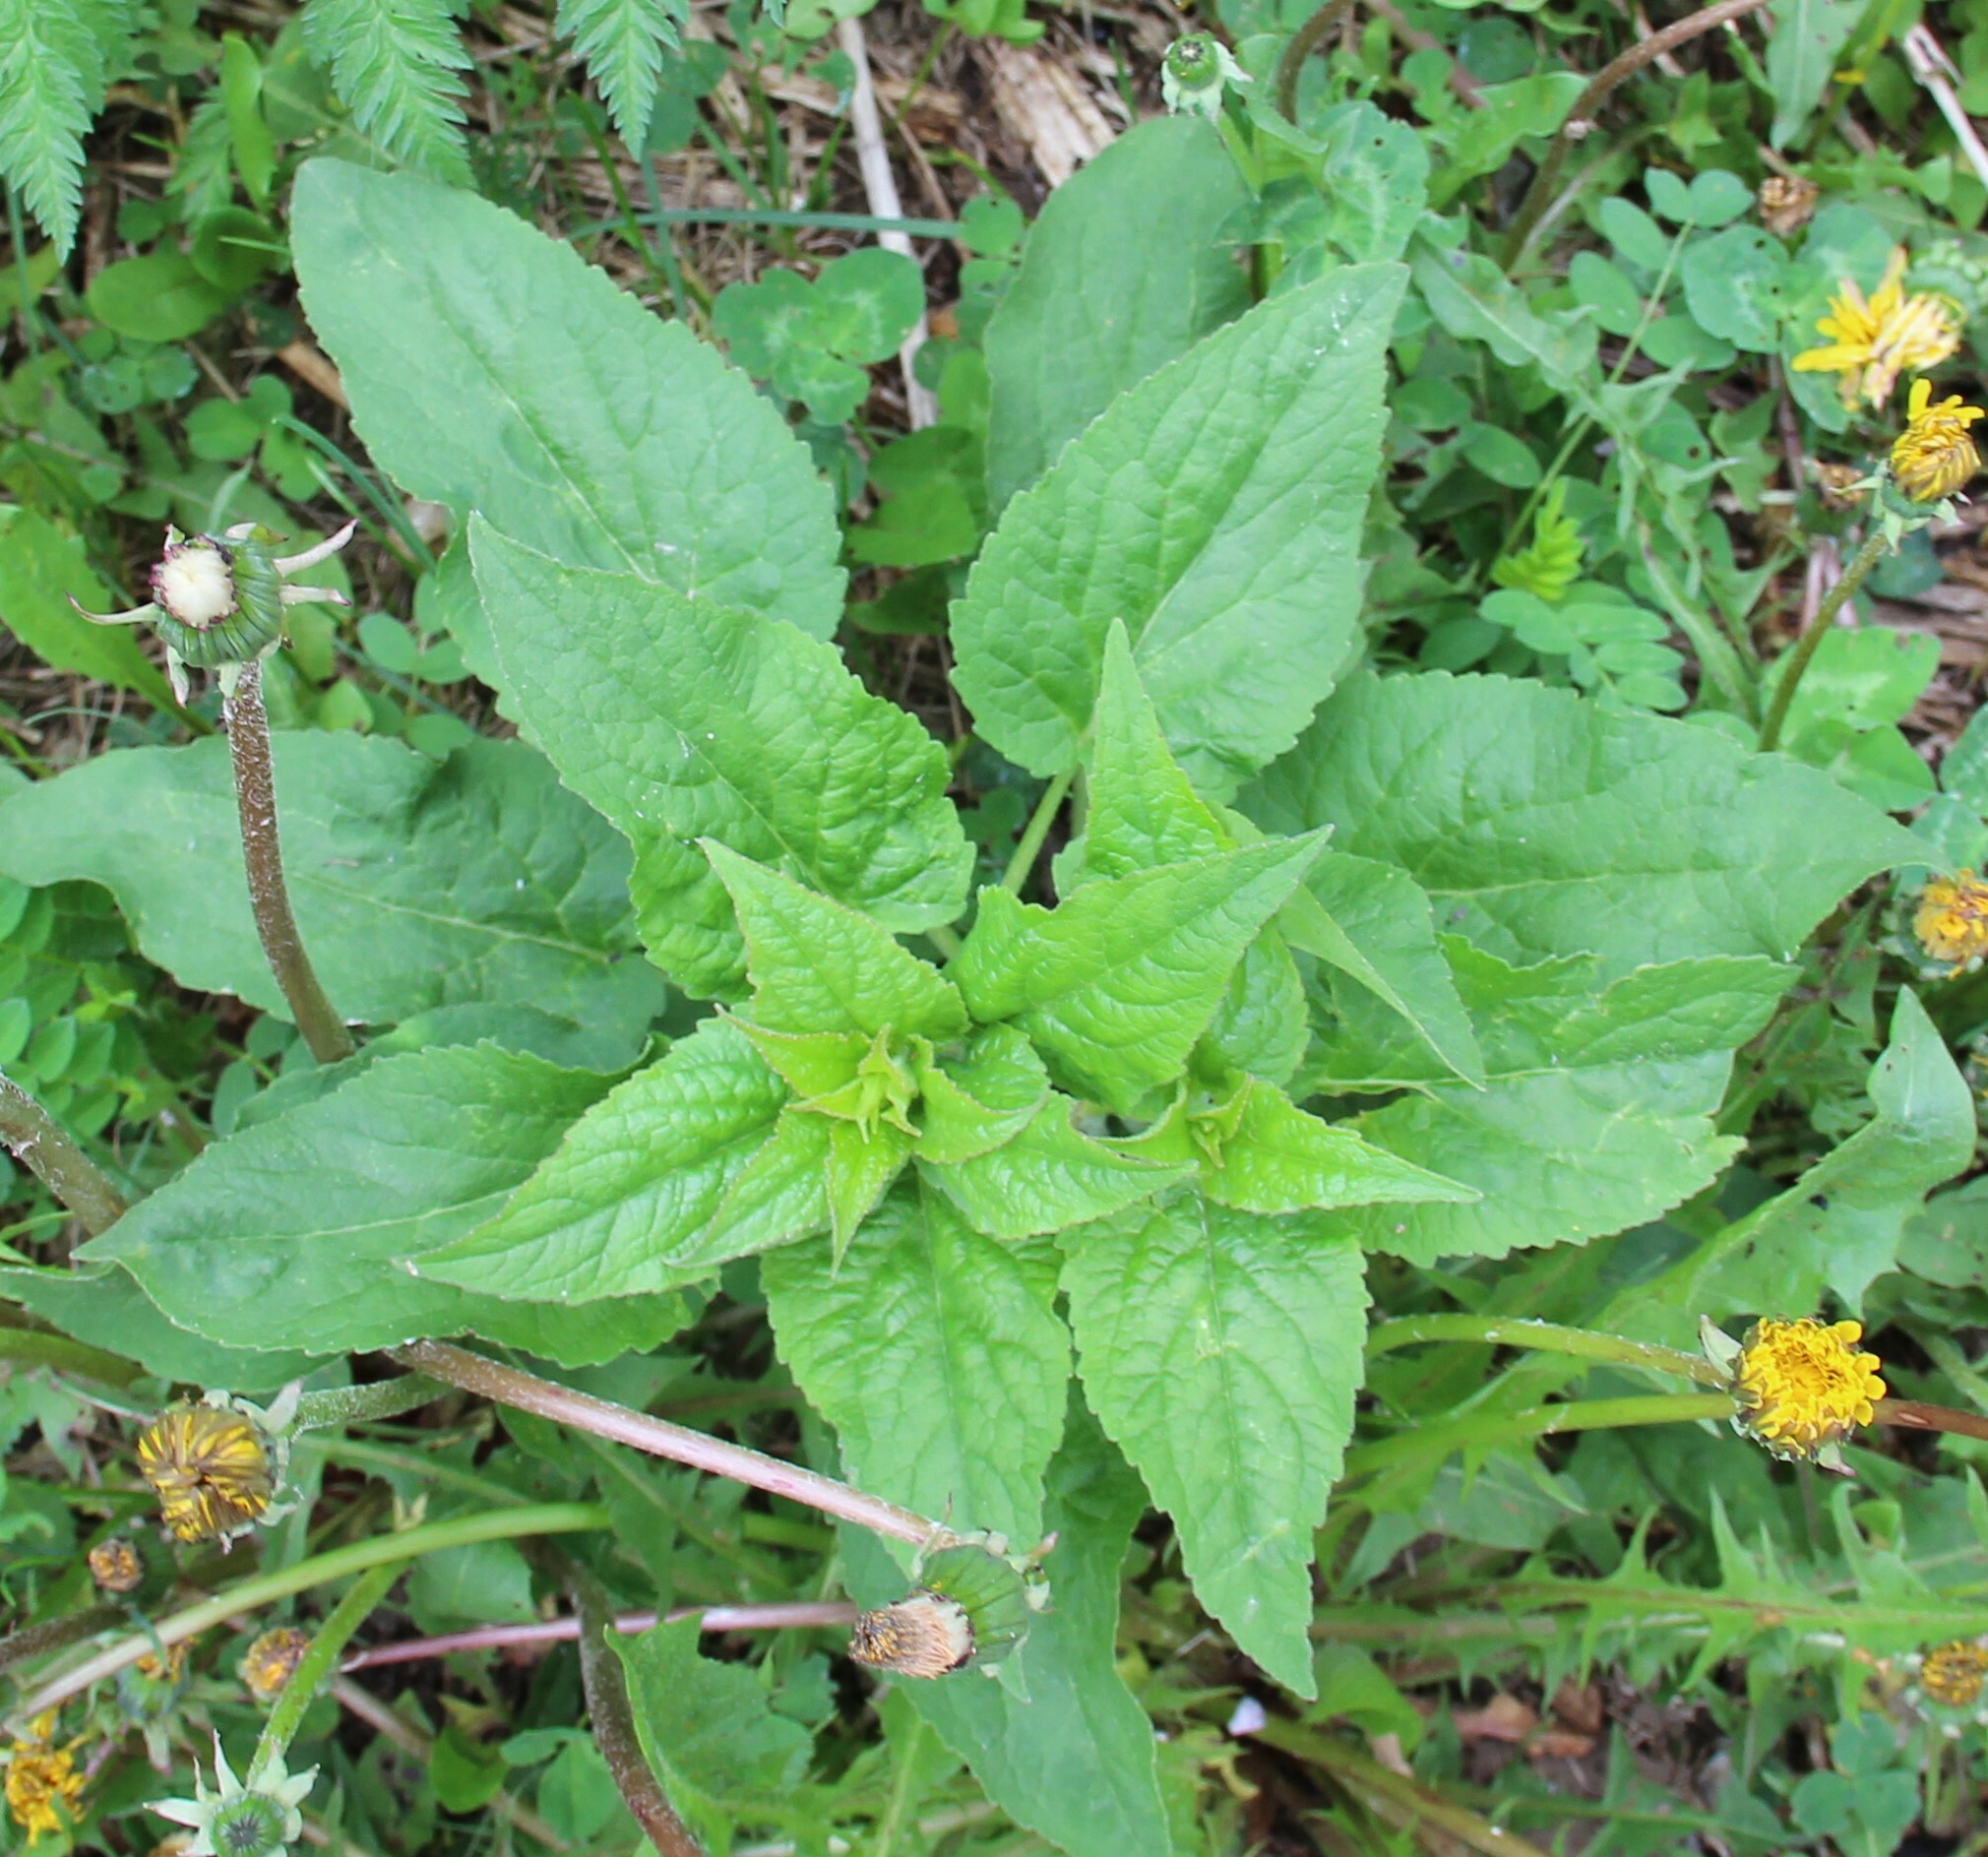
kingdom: Plantae
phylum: Tracheophyta
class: Magnoliopsida
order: Asterales
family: Campanulaceae
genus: Campanula
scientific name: Campanula latifolia
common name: Giant bellflower
